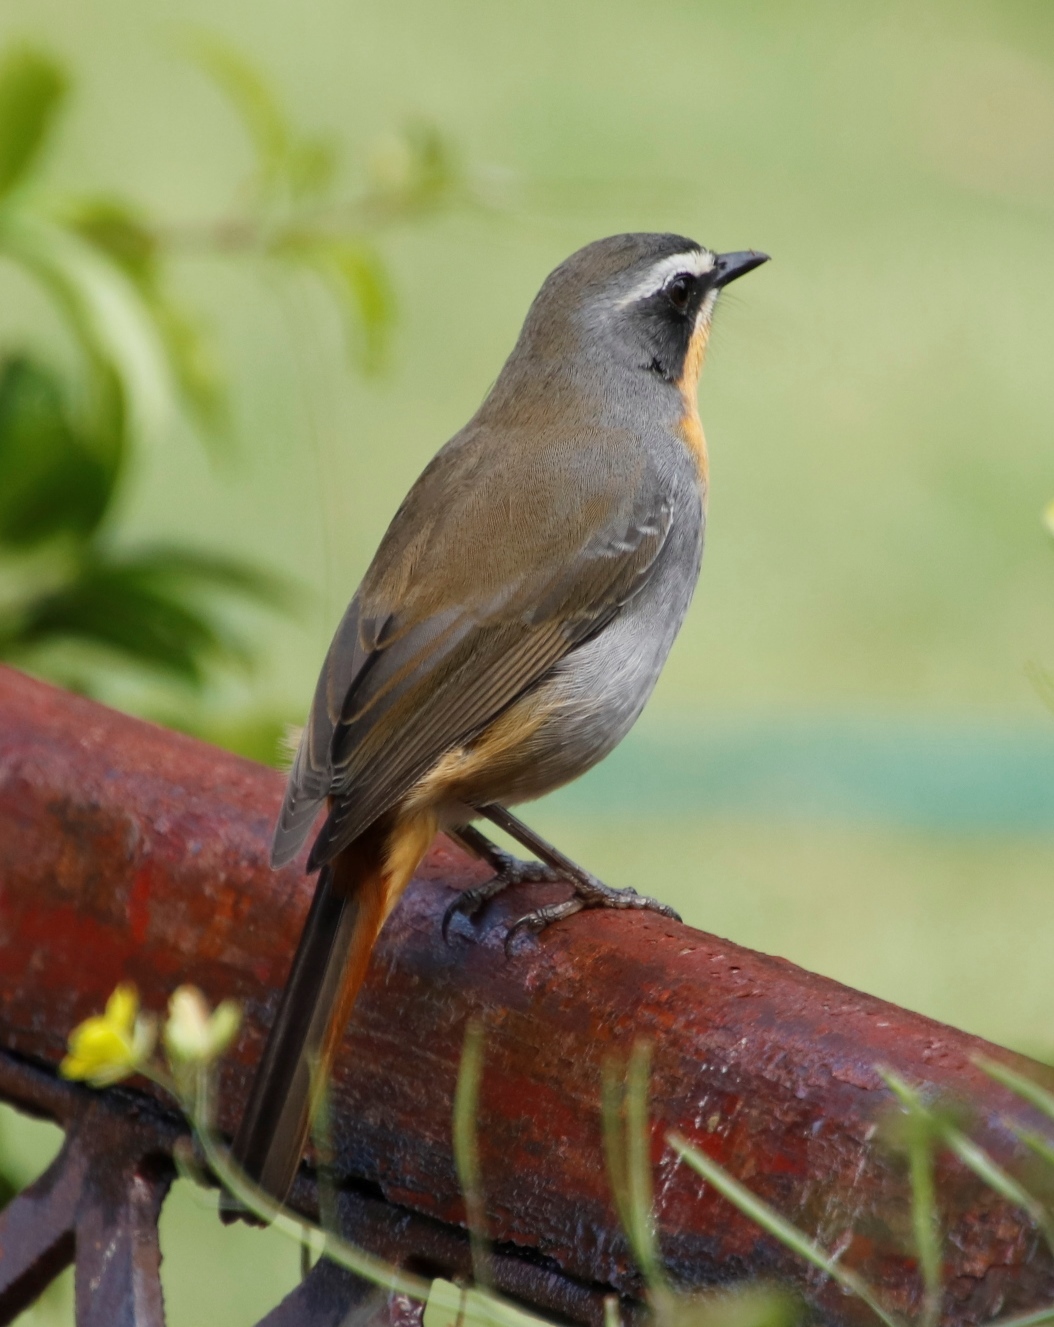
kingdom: Animalia
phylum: Chordata
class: Aves
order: Passeriformes
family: Muscicapidae
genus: Cossypha
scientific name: Cossypha caffra
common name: Cape robin-chat
